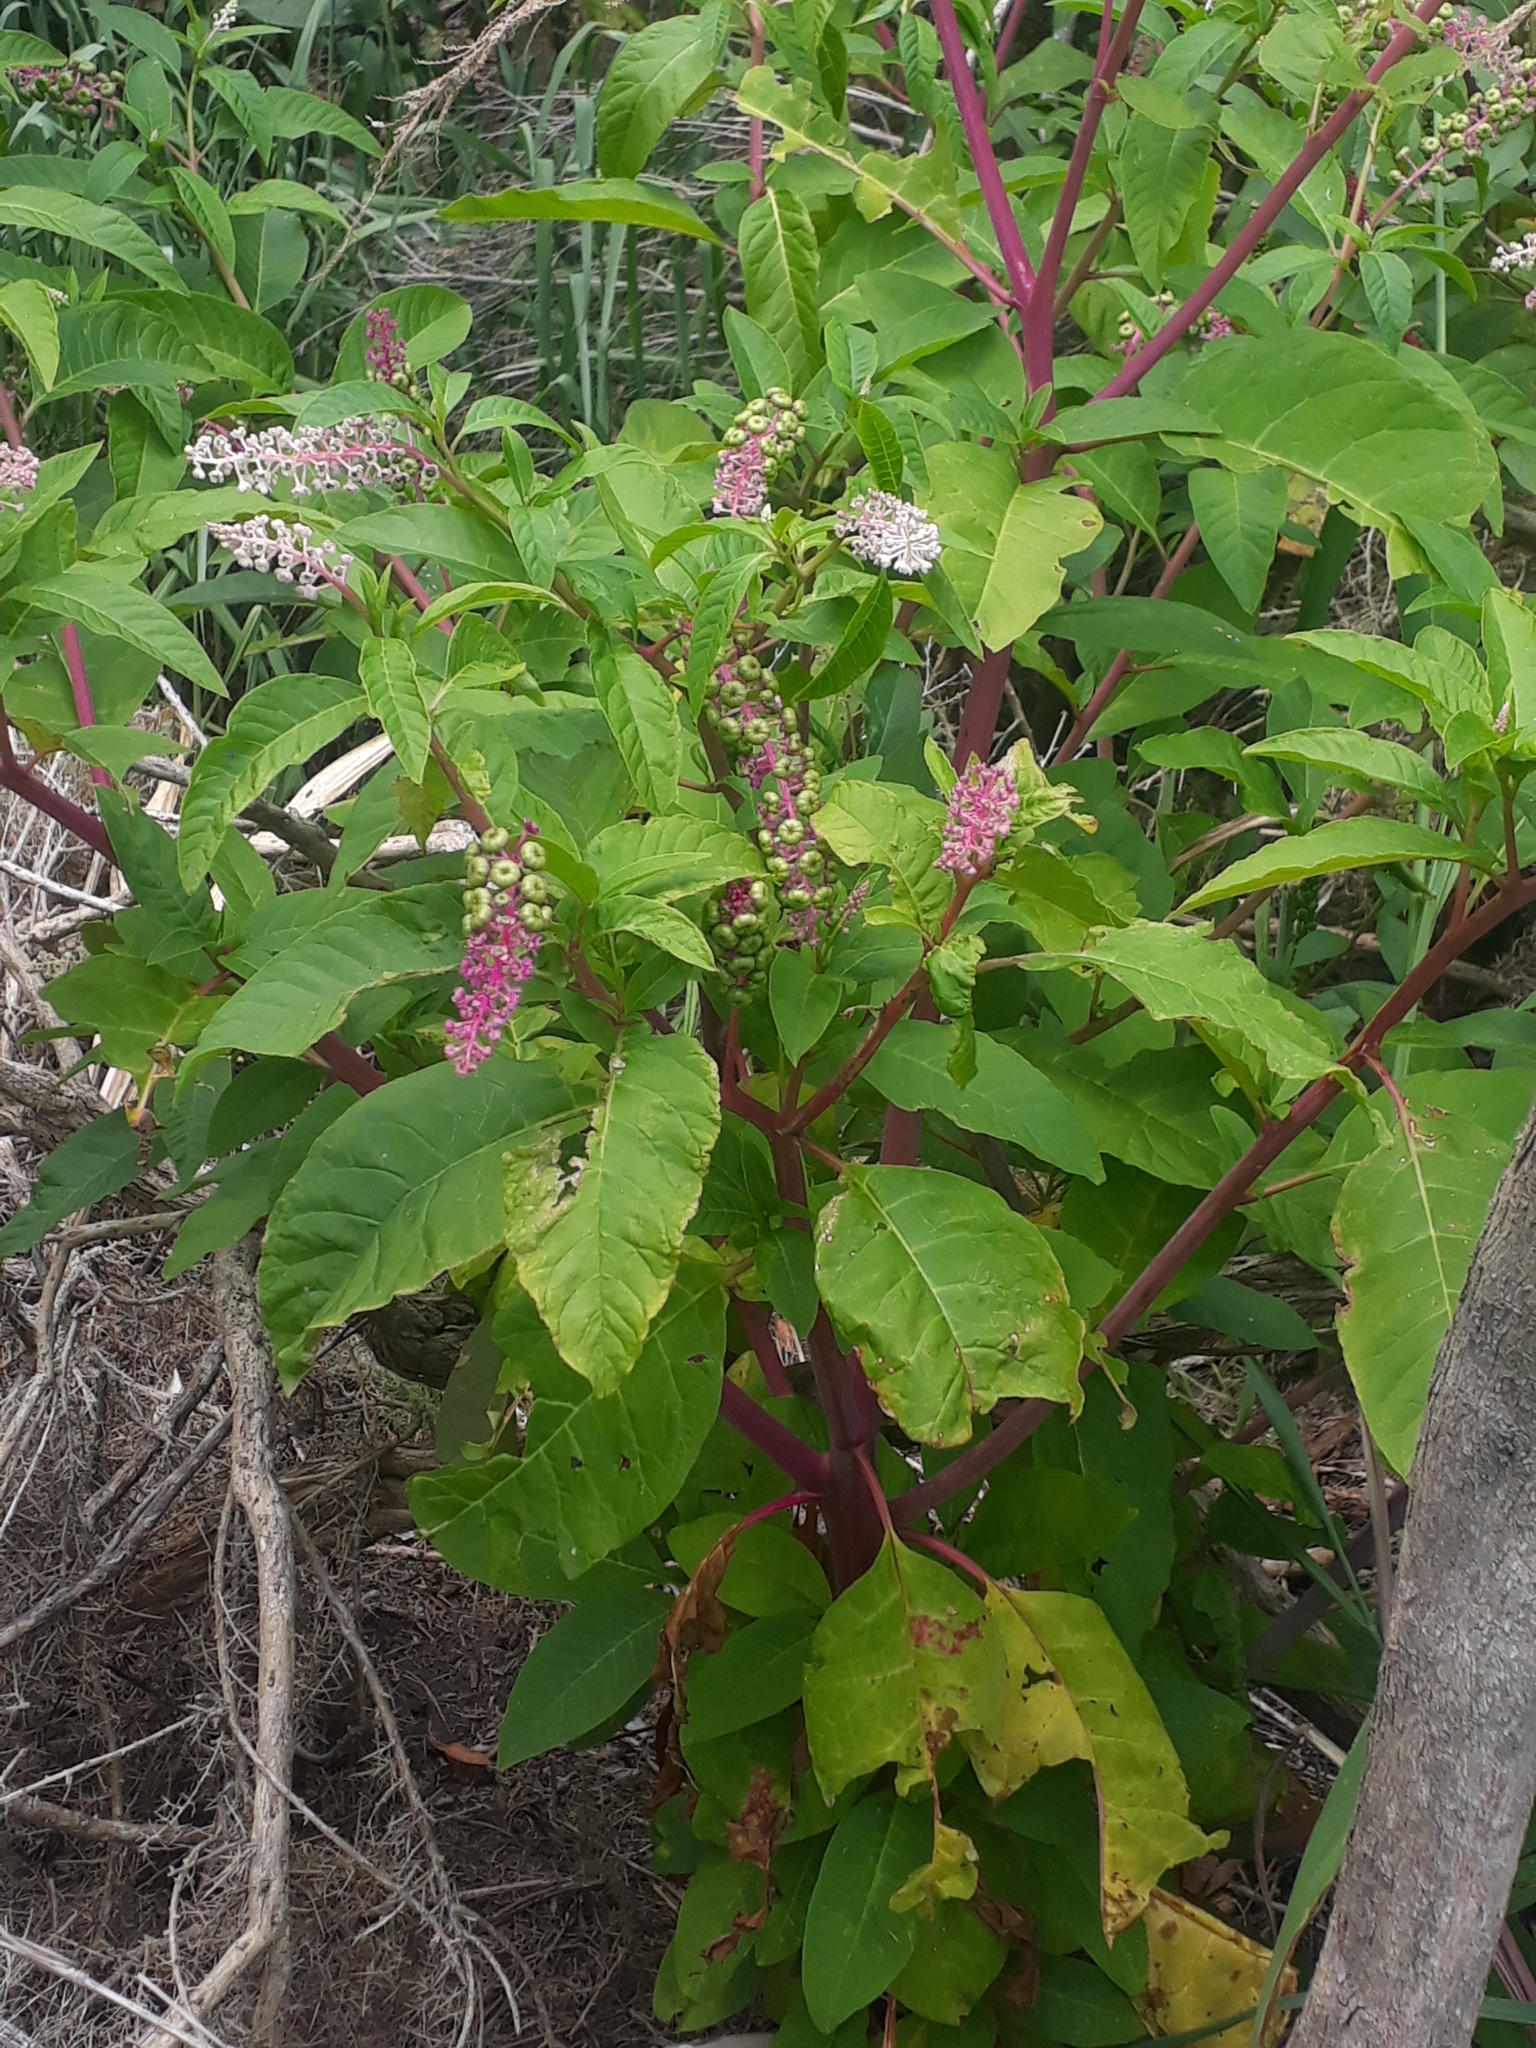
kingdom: Plantae
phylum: Tracheophyta
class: Magnoliopsida
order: Caryophyllales
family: Phytolaccaceae
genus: Phytolacca
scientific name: Phytolacca americana
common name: American pokeweed
